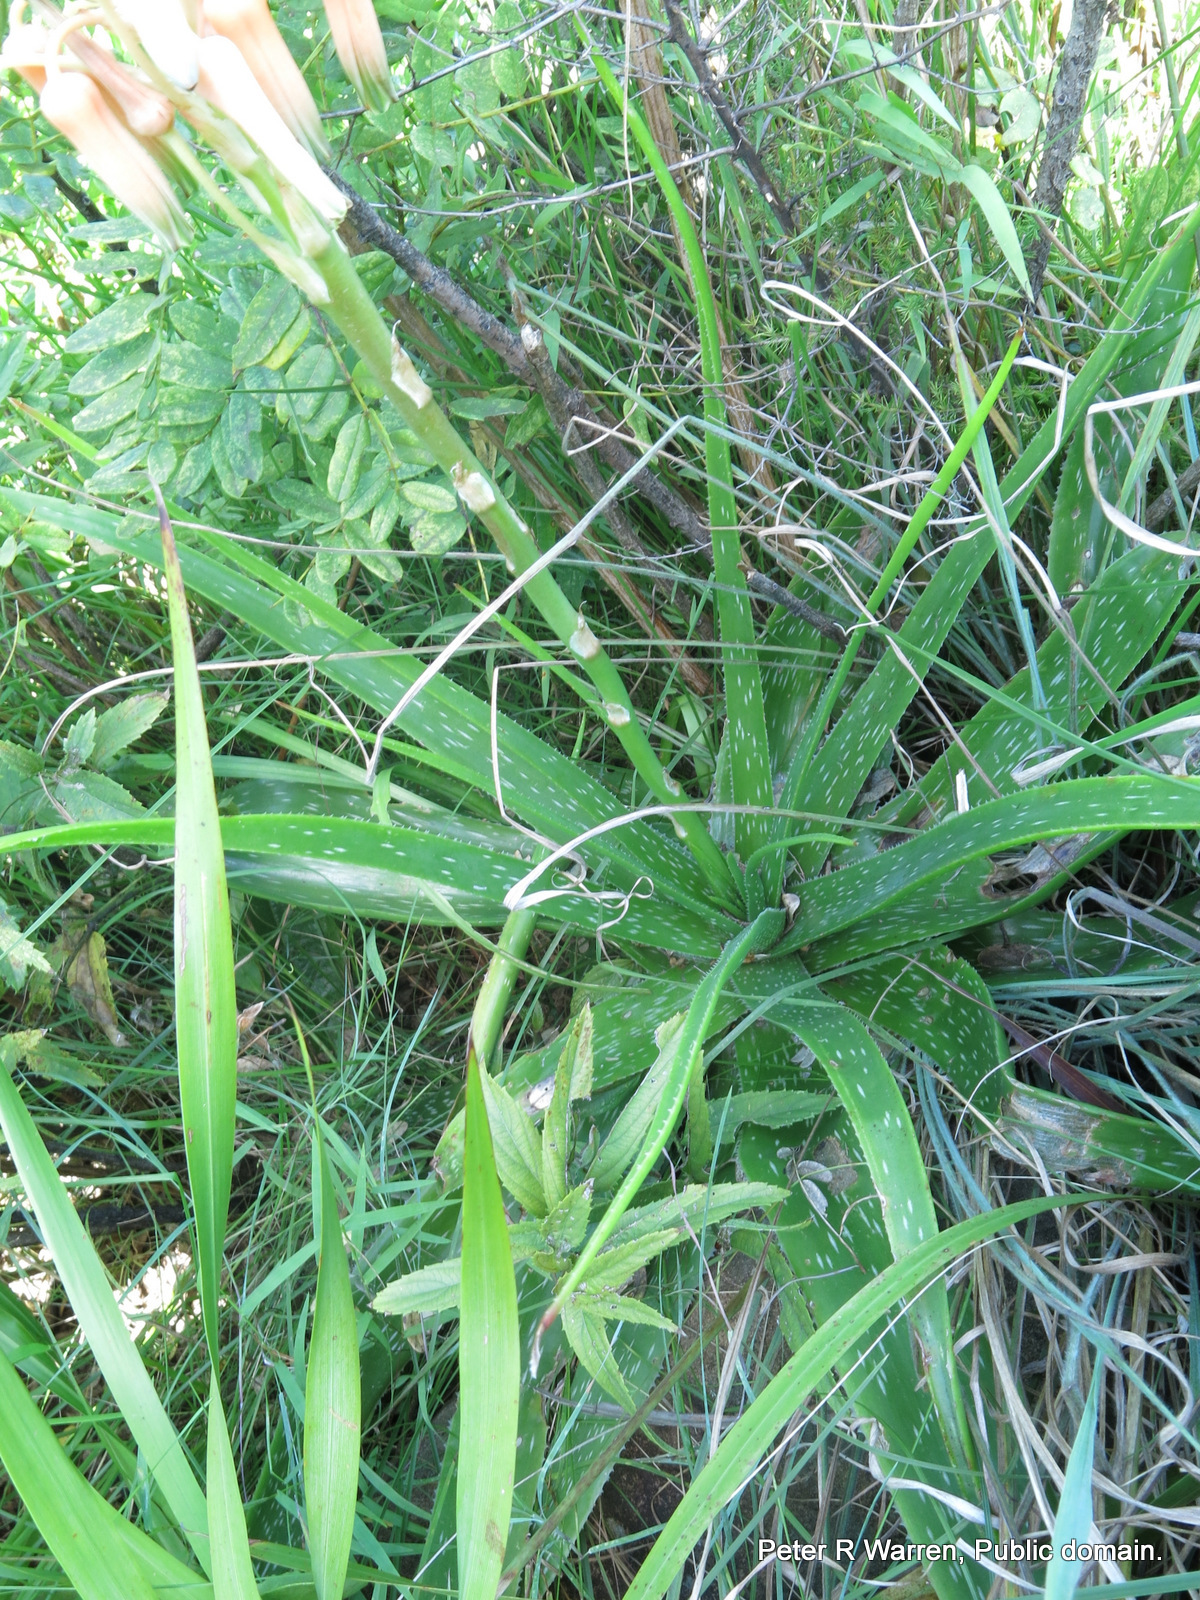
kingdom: Plantae
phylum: Tracheophyta
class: Liliopsida
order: Asparagales
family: Asphodelaceae
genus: Aloe
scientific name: Aloe cooperi
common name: Cooper's aloe
